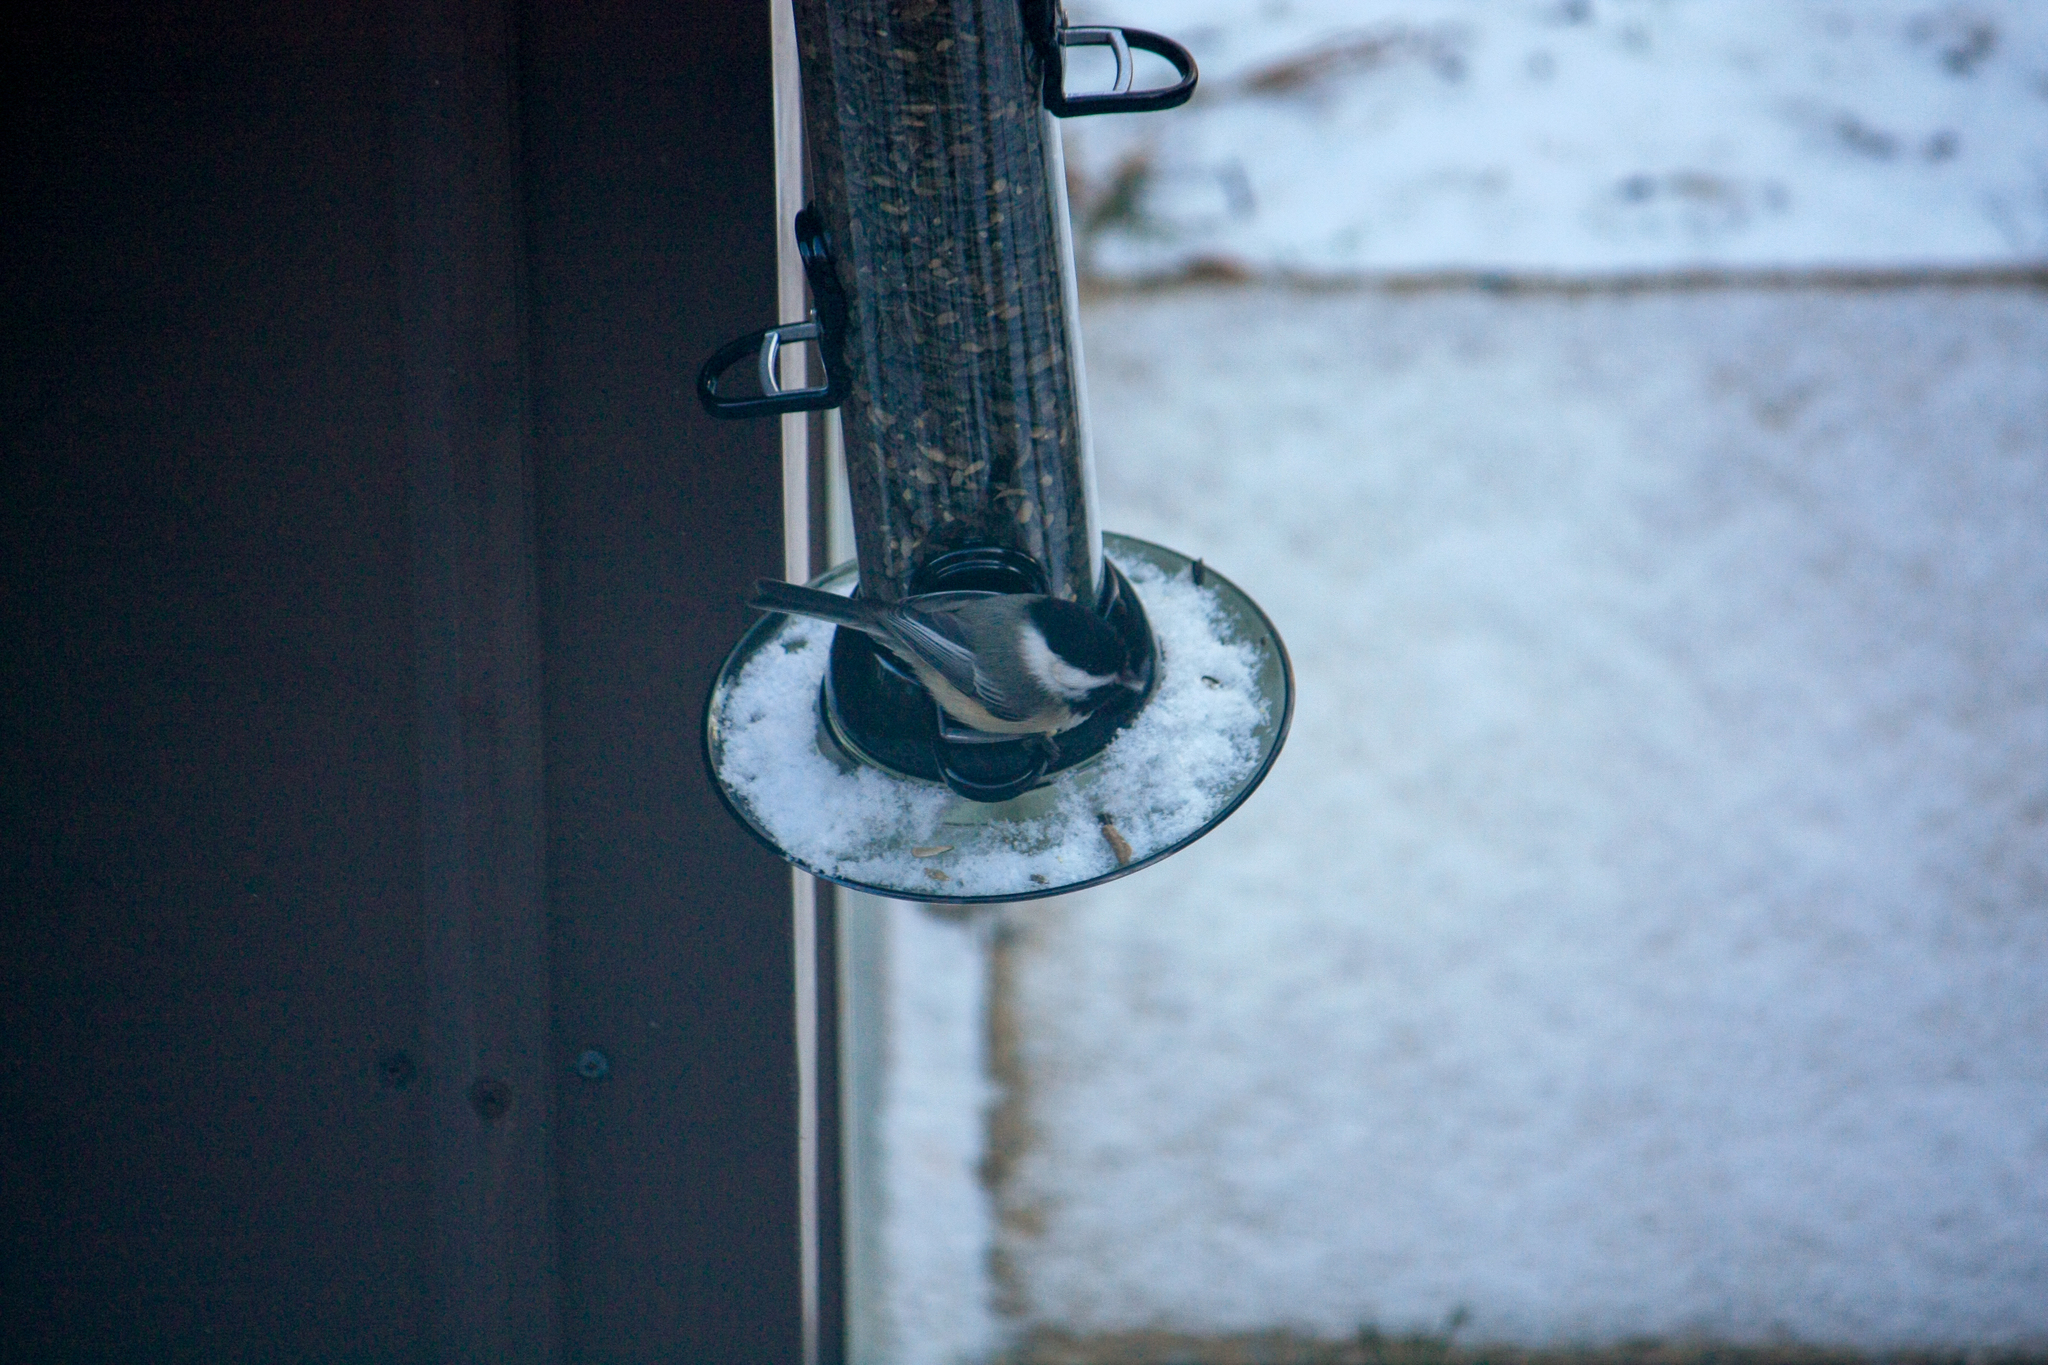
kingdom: Animalia
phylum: Chordata
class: Aves
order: Passeriformes
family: Paridae
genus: Poecile
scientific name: Poecile atricapillus
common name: Black-capped chickadee
